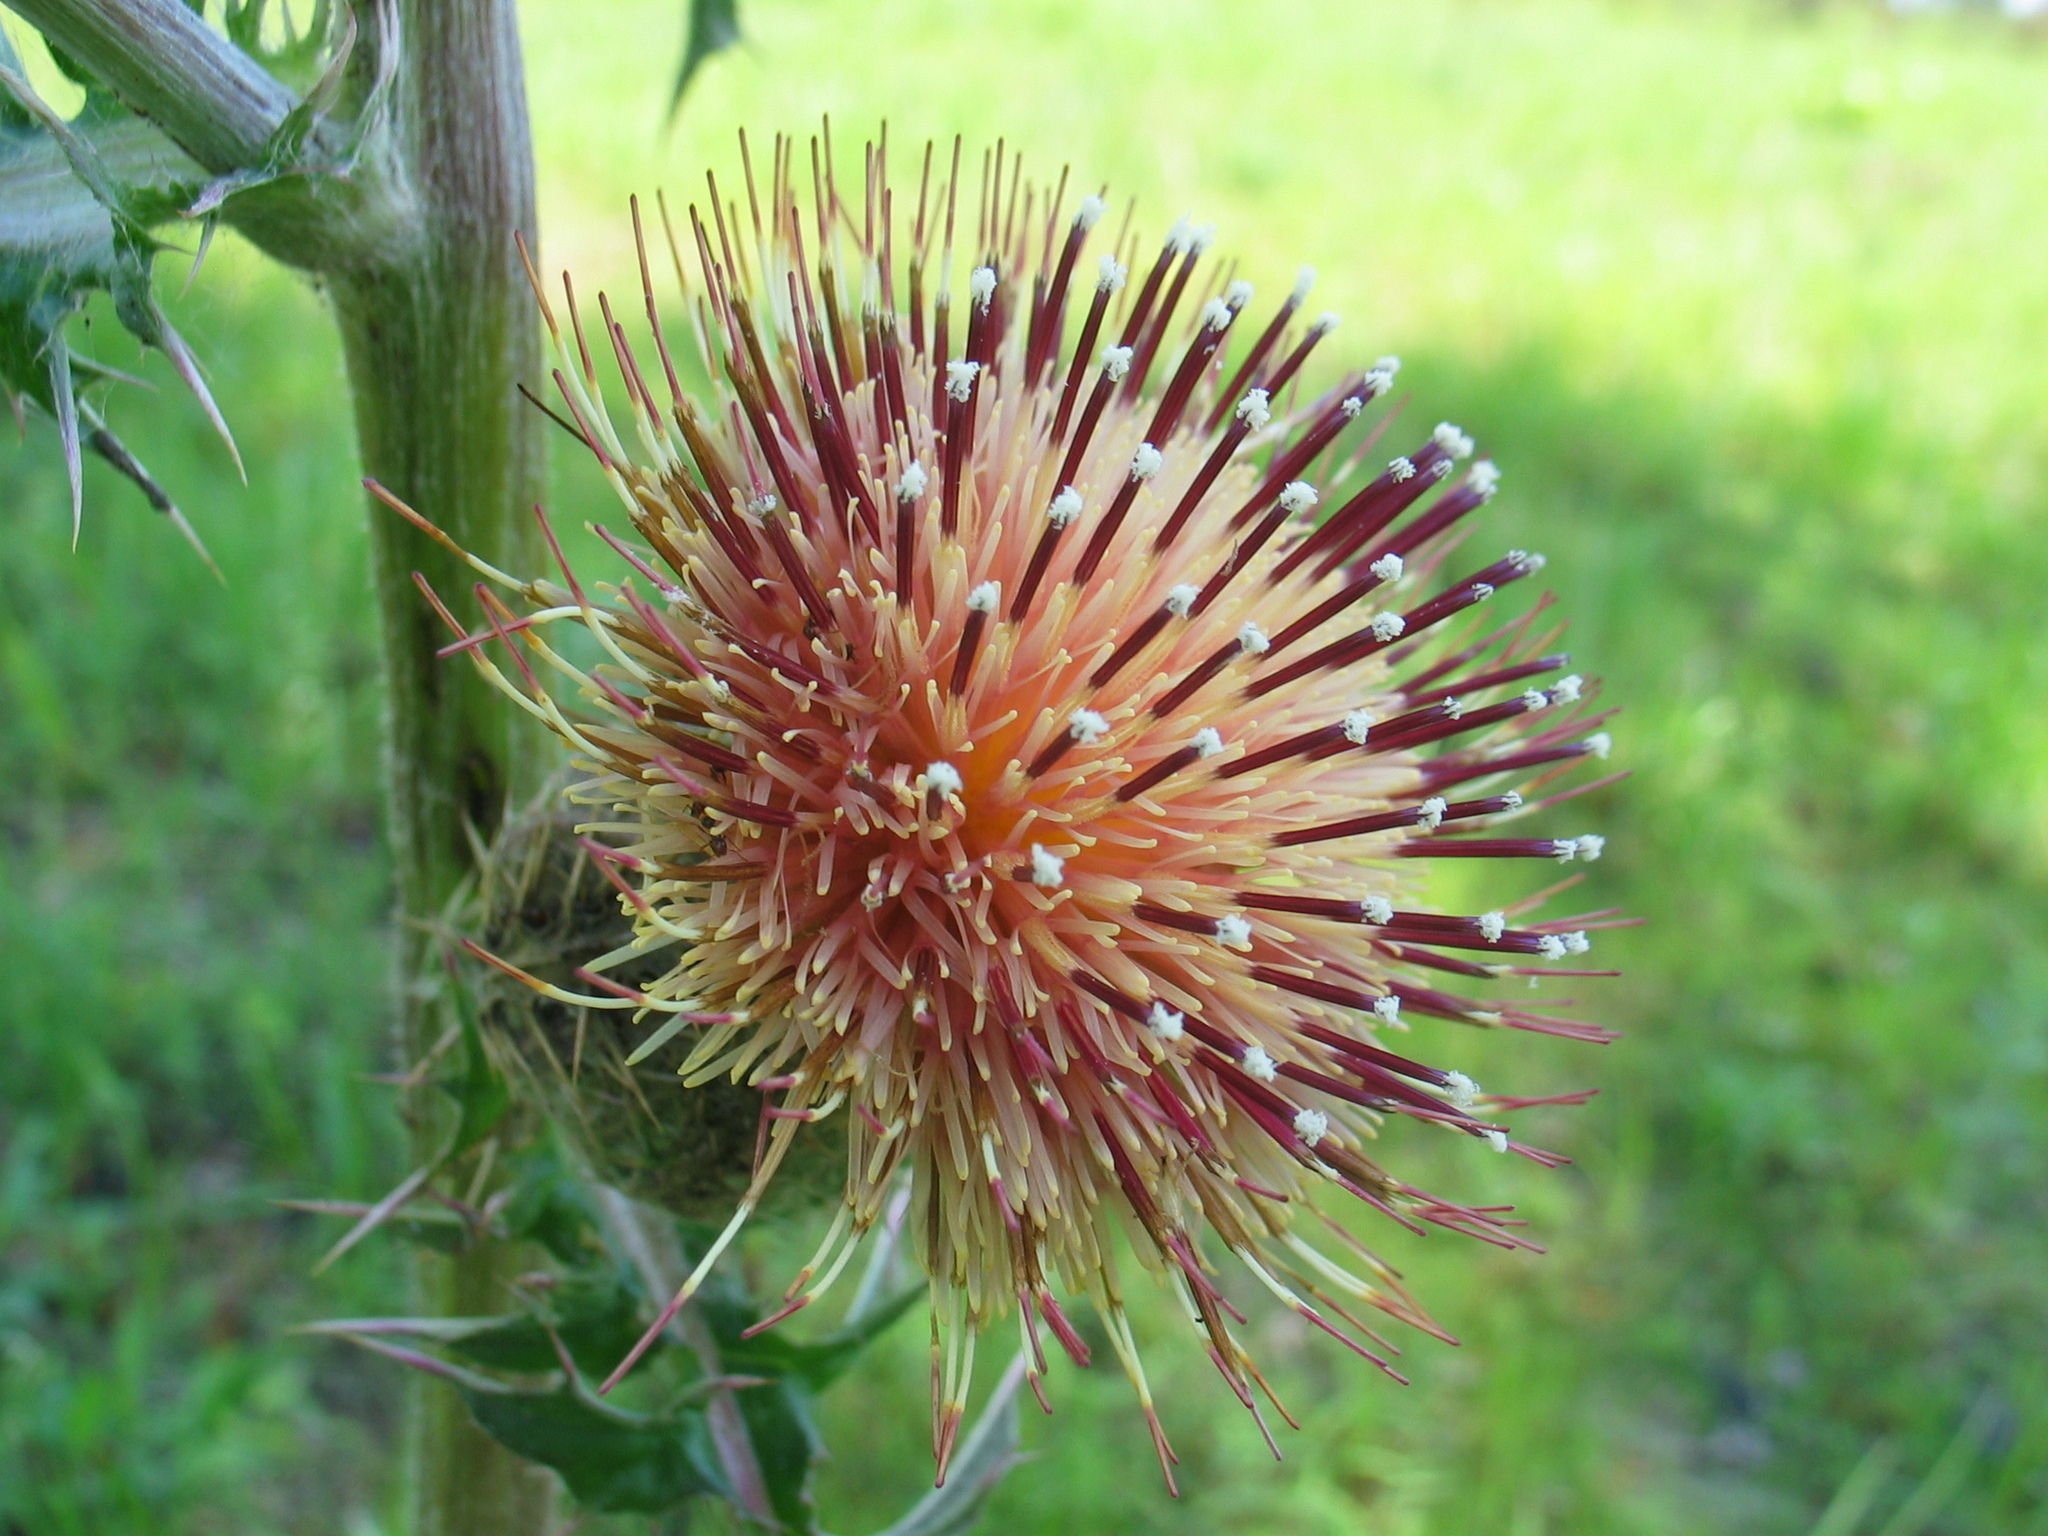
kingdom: Plantae
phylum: Tracheophyta
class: Magnoliopsida
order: Asterales
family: Asteraceae
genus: Cirsium
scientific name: Cirsium horridulum
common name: Bristly thistle
